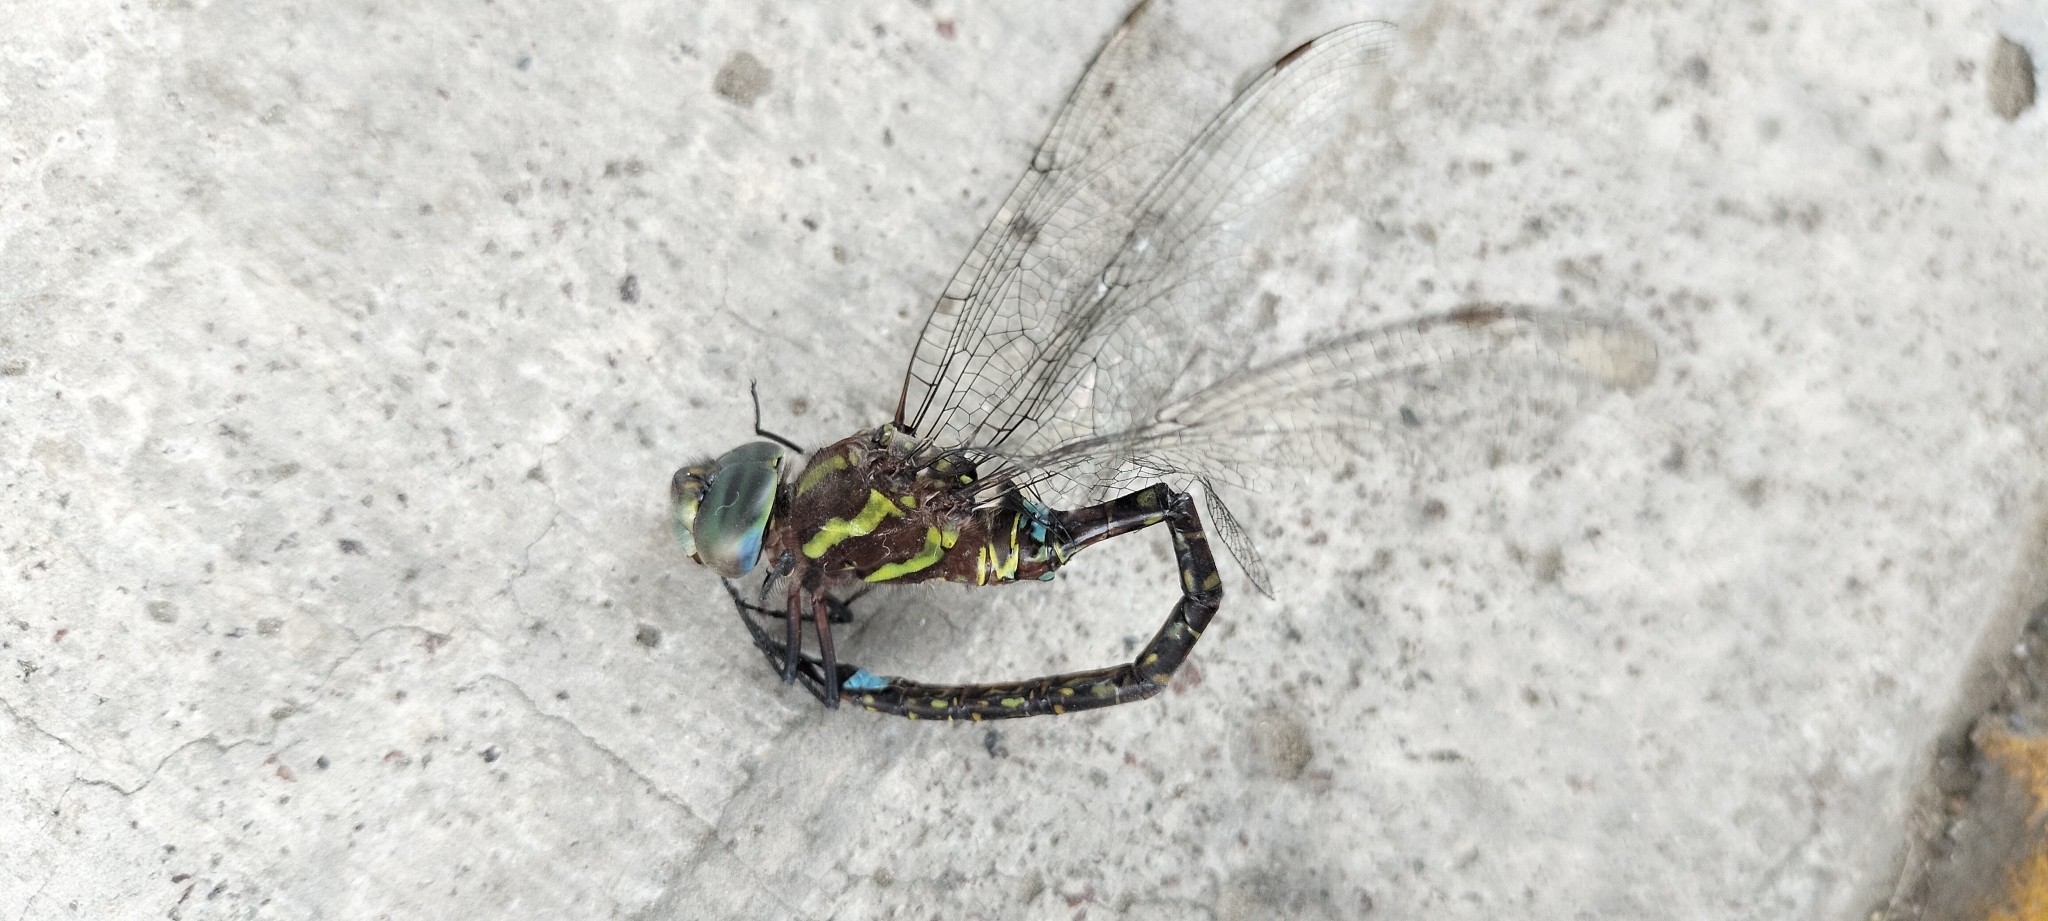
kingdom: Animalia
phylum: Arthropoda
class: Insecta
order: Odonata
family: Aeshnidae
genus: Rhionaeschna
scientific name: Rhionaeschna psilus
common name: Turquoise-tipped darner
